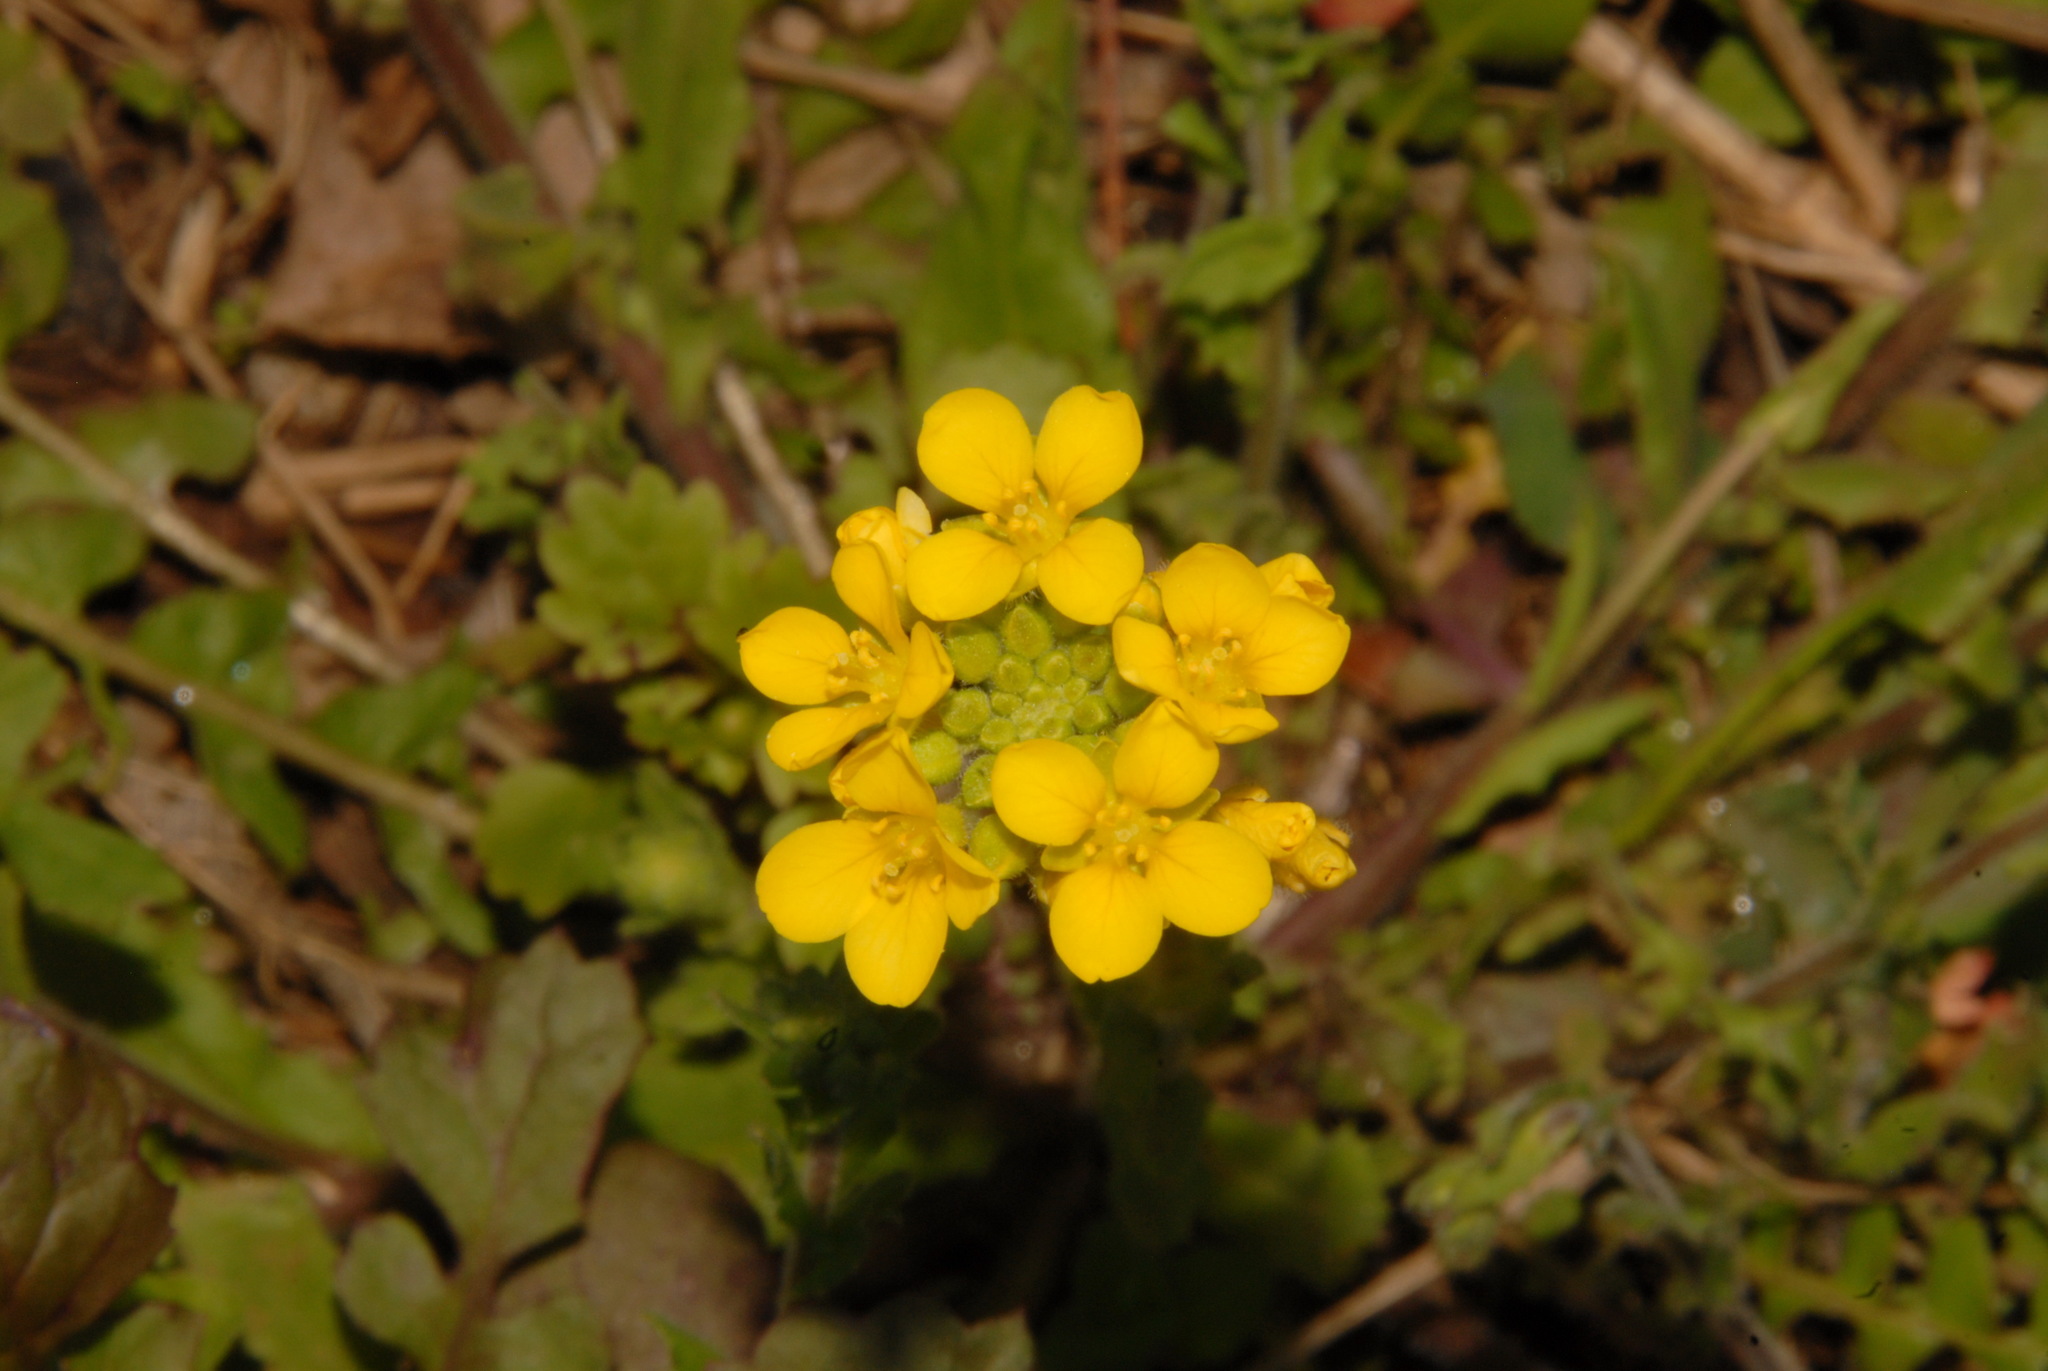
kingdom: Plantae
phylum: Tracheophyta
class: Magnoliopsida
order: Brassicales
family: Brassicaceae
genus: Paysonia
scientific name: Paysonia densipila
